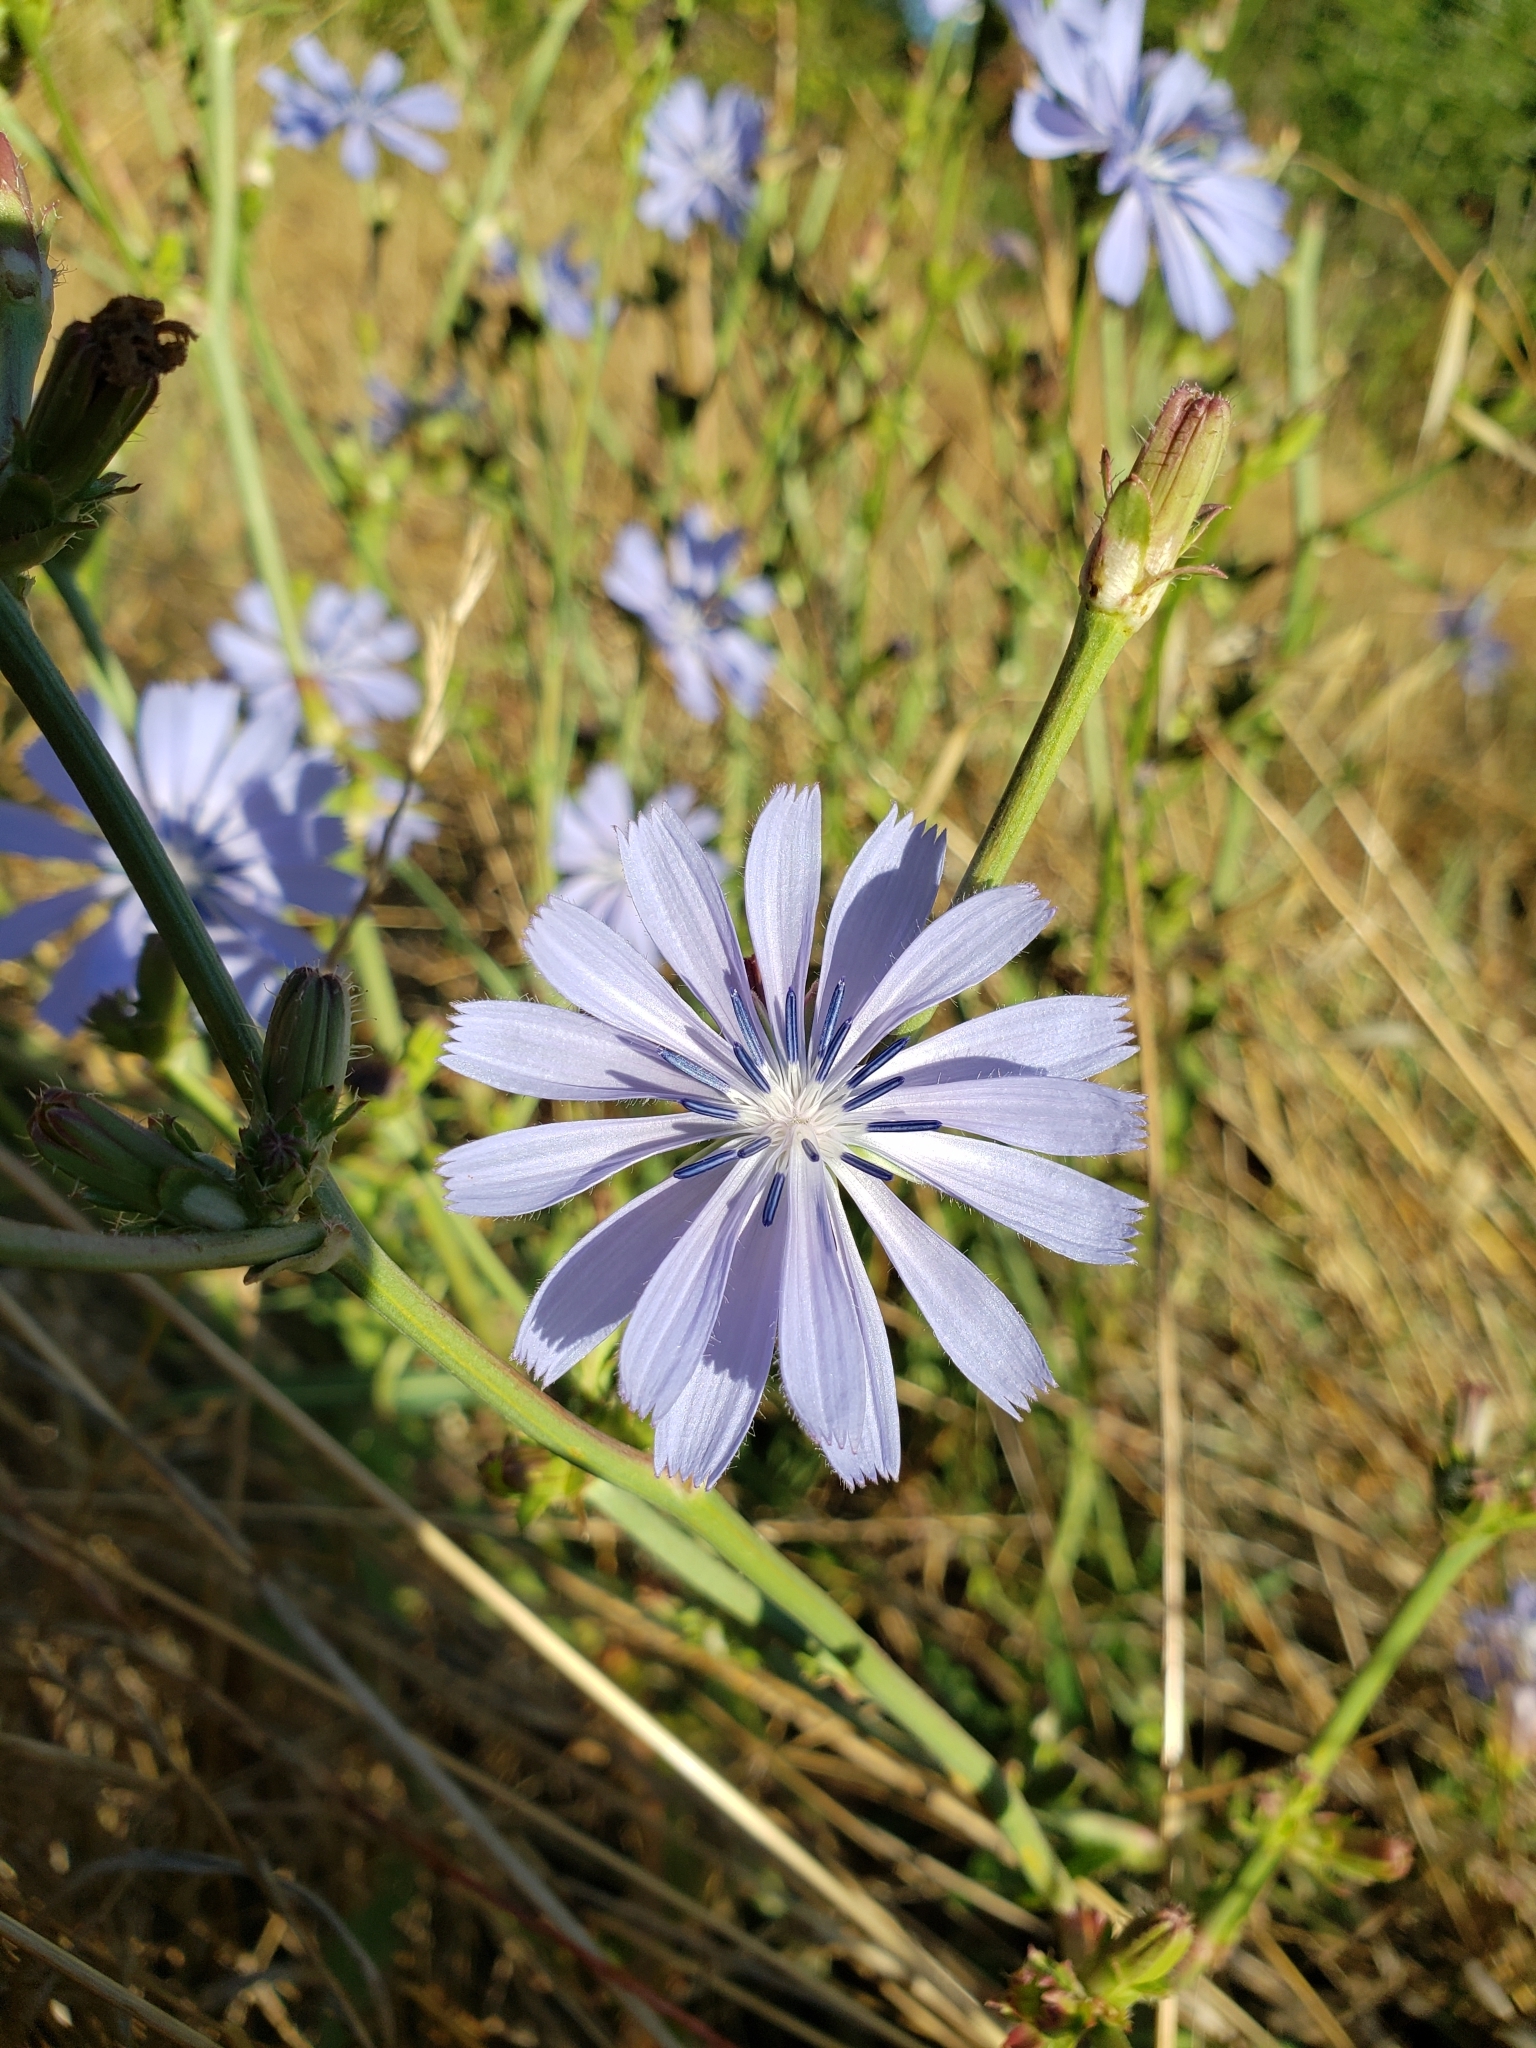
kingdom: Plantae
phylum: Tracheophyta
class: Magnoliopsida
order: Asterales
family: Asteraceae
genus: Cichorium
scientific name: Cichorium intybus
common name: Chicory
